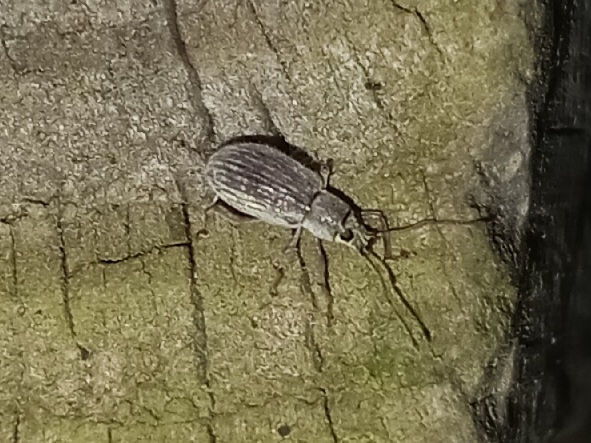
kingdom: Animalia
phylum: Arthropoda
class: Insecta
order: Coleoptera
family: Curculionidae
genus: Cyrtepistomus
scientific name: Cyrtepistomus castaneus
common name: Weevil
